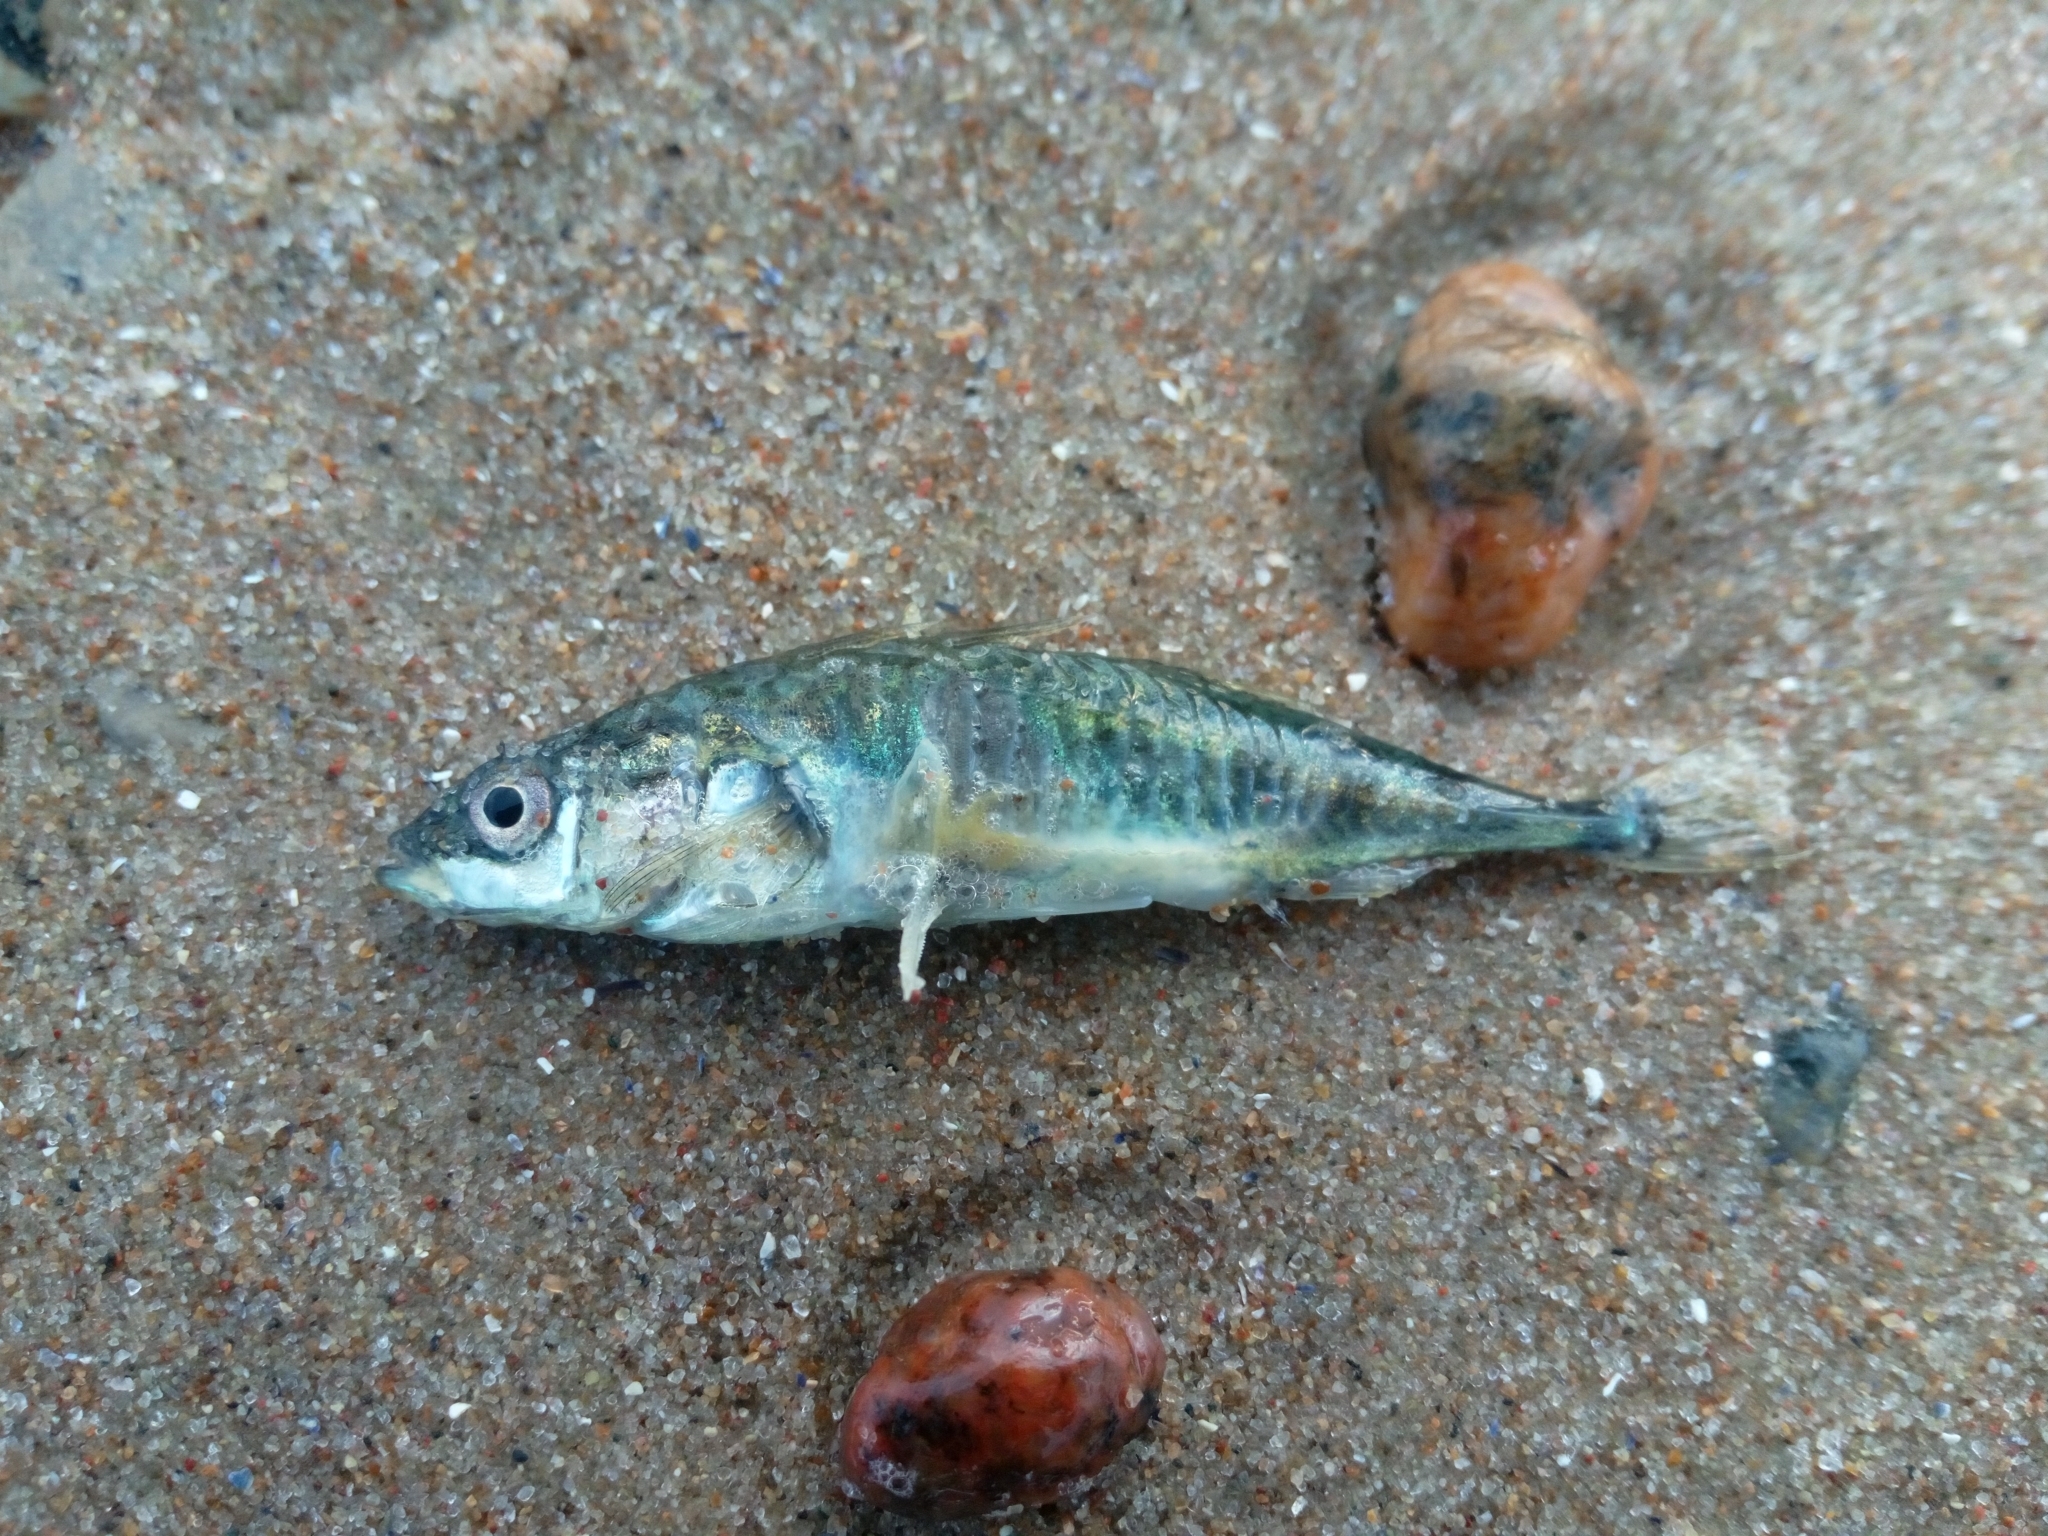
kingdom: Animalia
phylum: Chordata
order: Gasterosteiformes
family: Gasterosteidae
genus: Gasterosteus
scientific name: Gasterosteus aculeatus
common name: Three-spined stickleback
